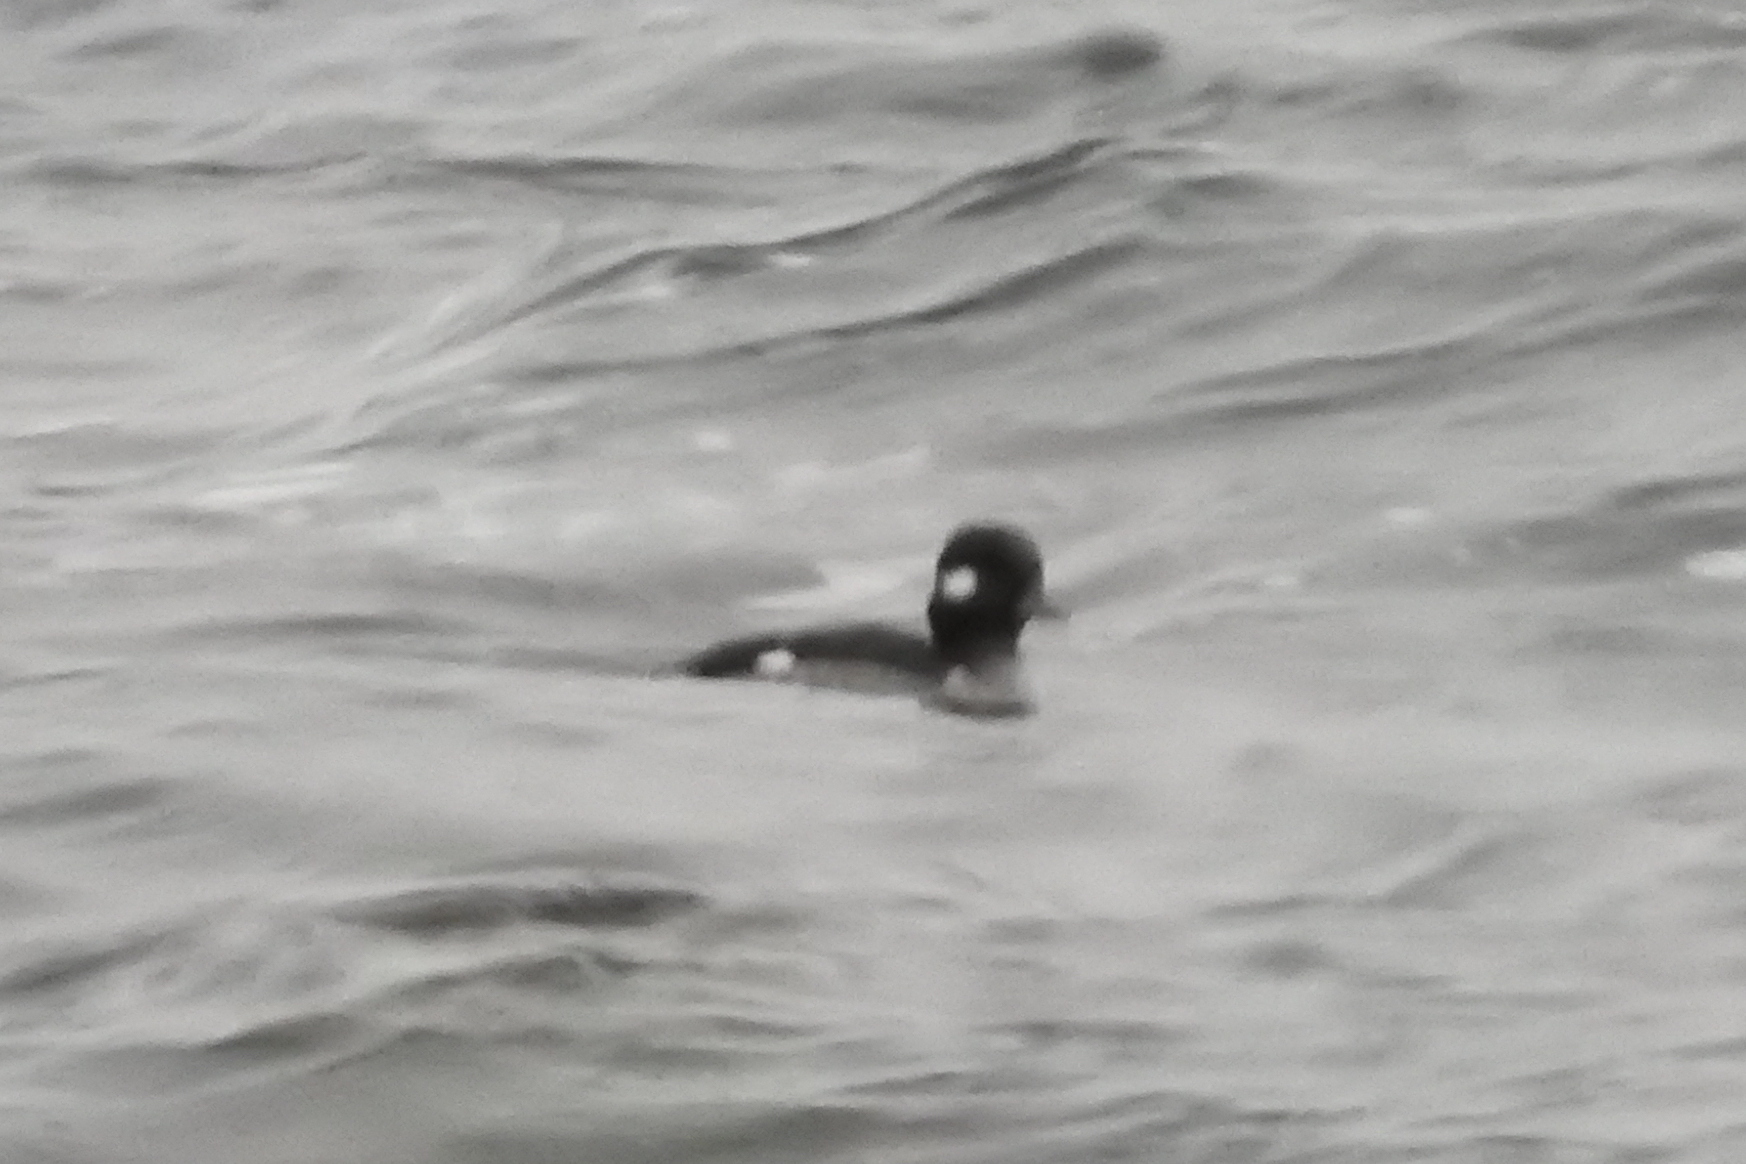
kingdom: Animalia
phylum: Chordata
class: Aves
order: Anseriformes
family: Anatidae
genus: Bucephala
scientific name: Bucephala albeola
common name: Bufflehead
